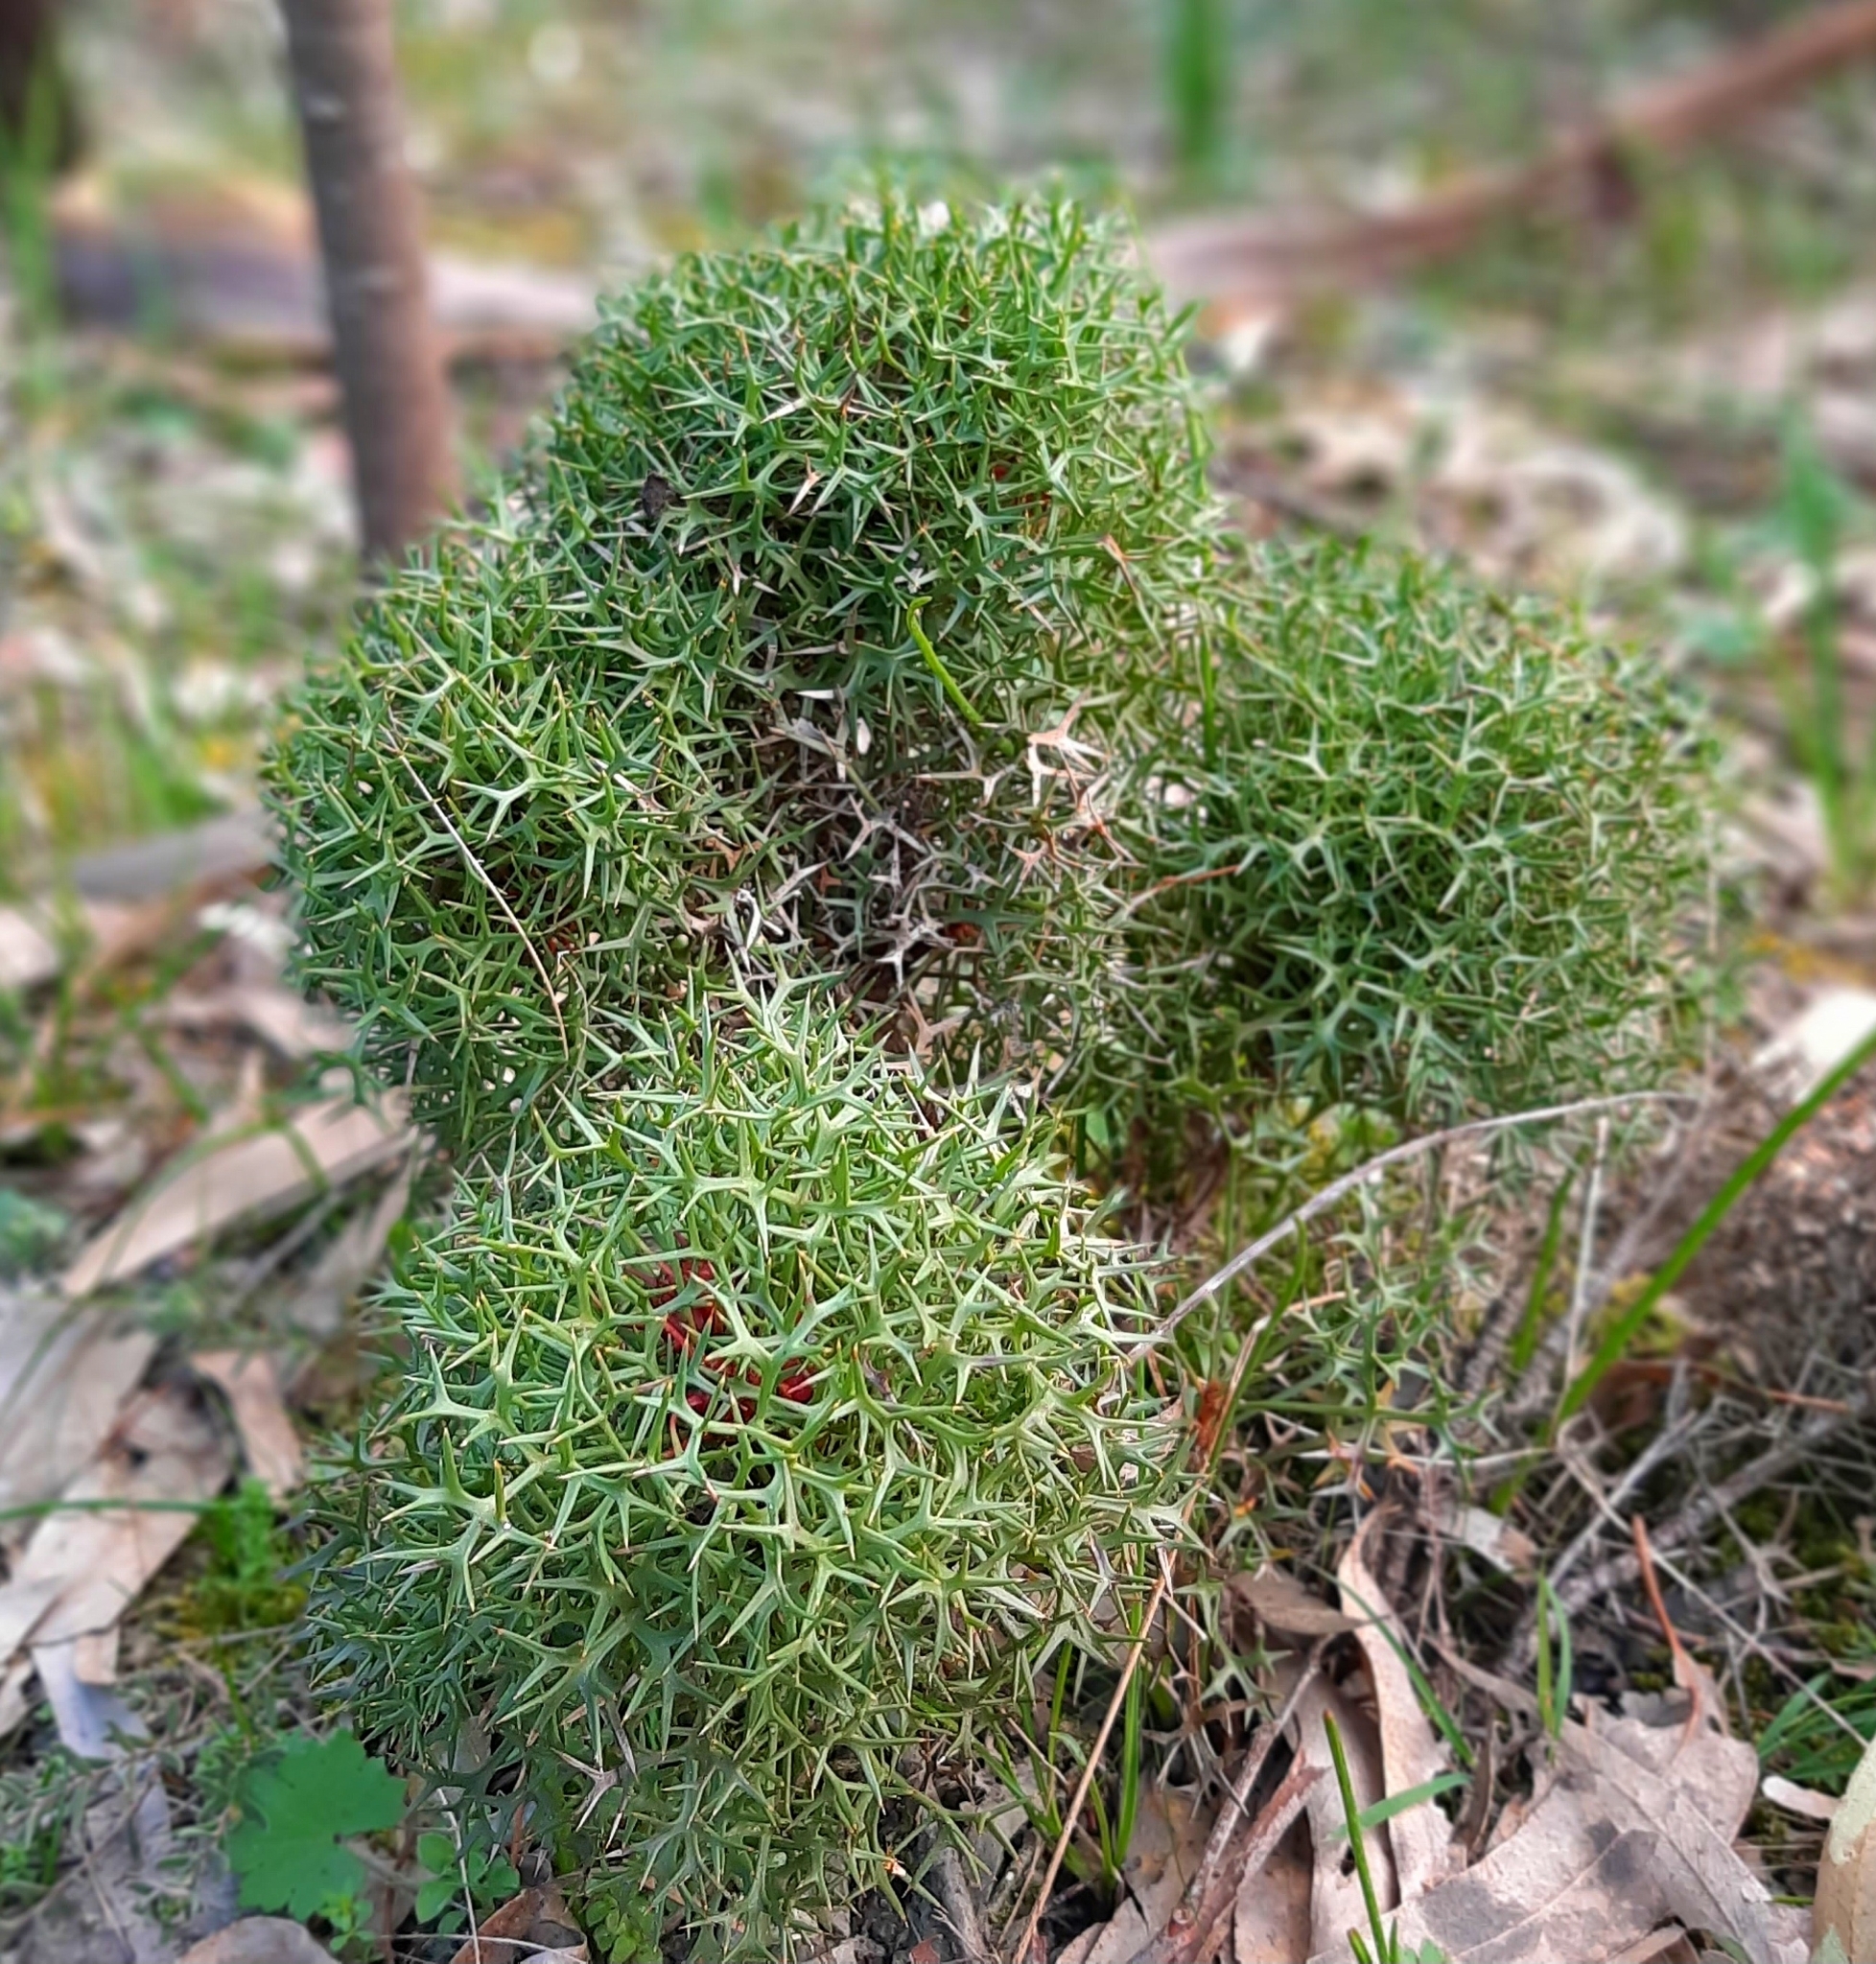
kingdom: Plantae
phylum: Tracheophyta
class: Magnoliopsida
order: Proteales
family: Proteaceae
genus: Isopogon
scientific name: Isopogon ceratophyllus
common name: Horny cone-bush
